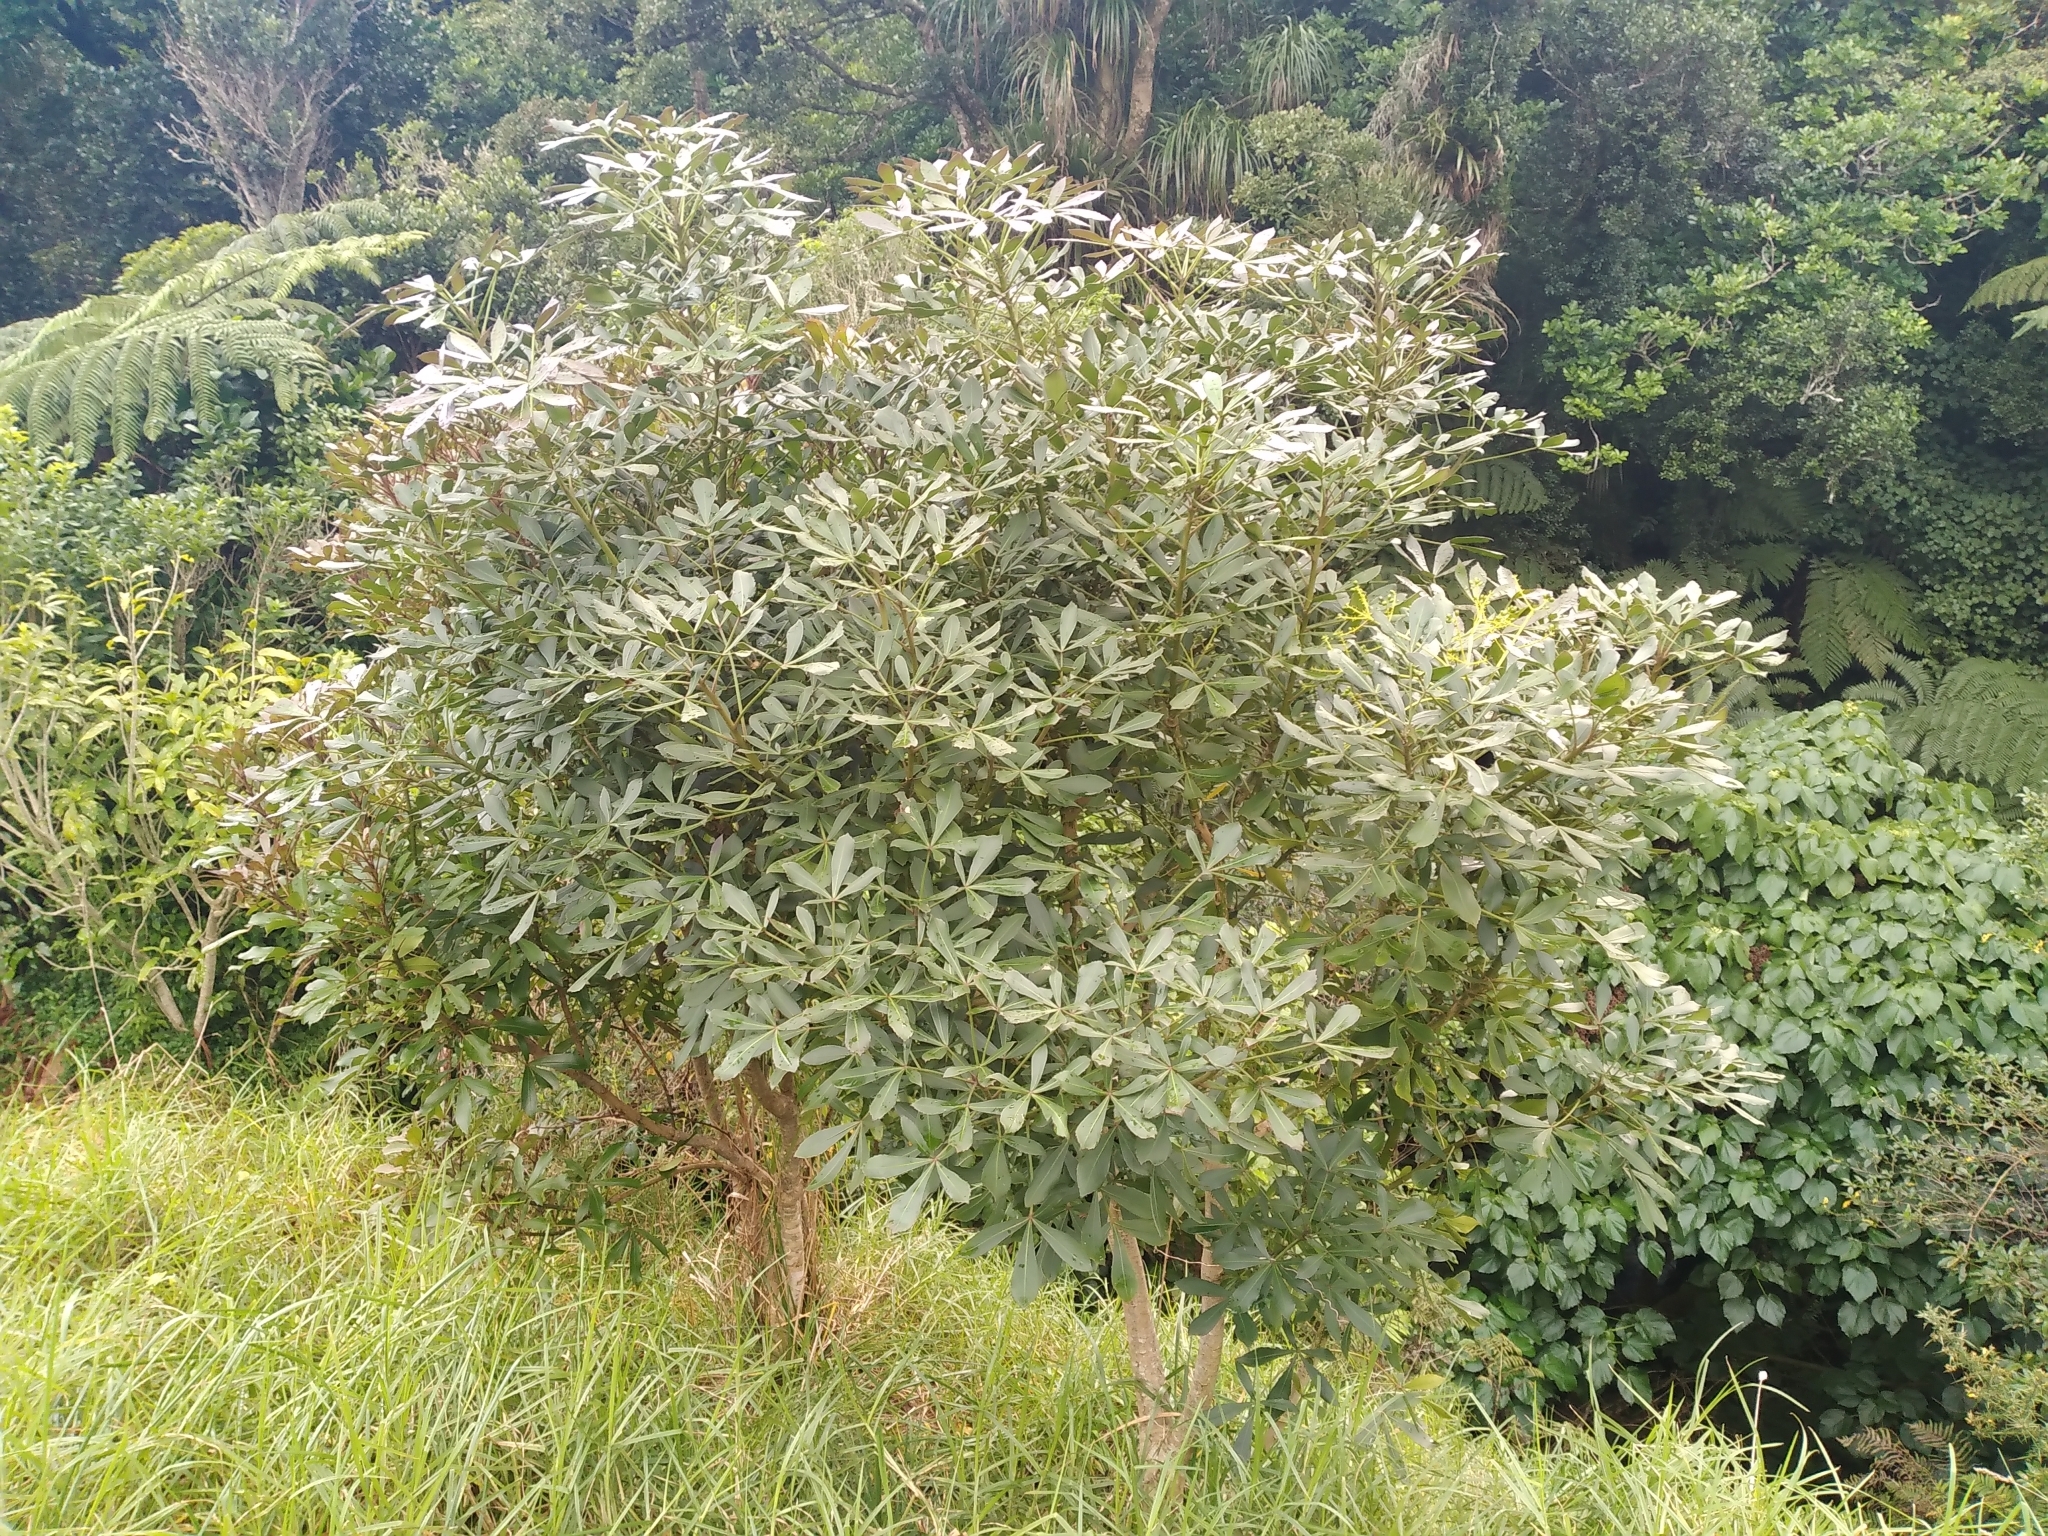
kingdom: Plantae
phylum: Tracheophyta
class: Magnoliopsida
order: Apiales
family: Araliaceae
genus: Pseudopanax
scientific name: Pseudopanax lessonii
